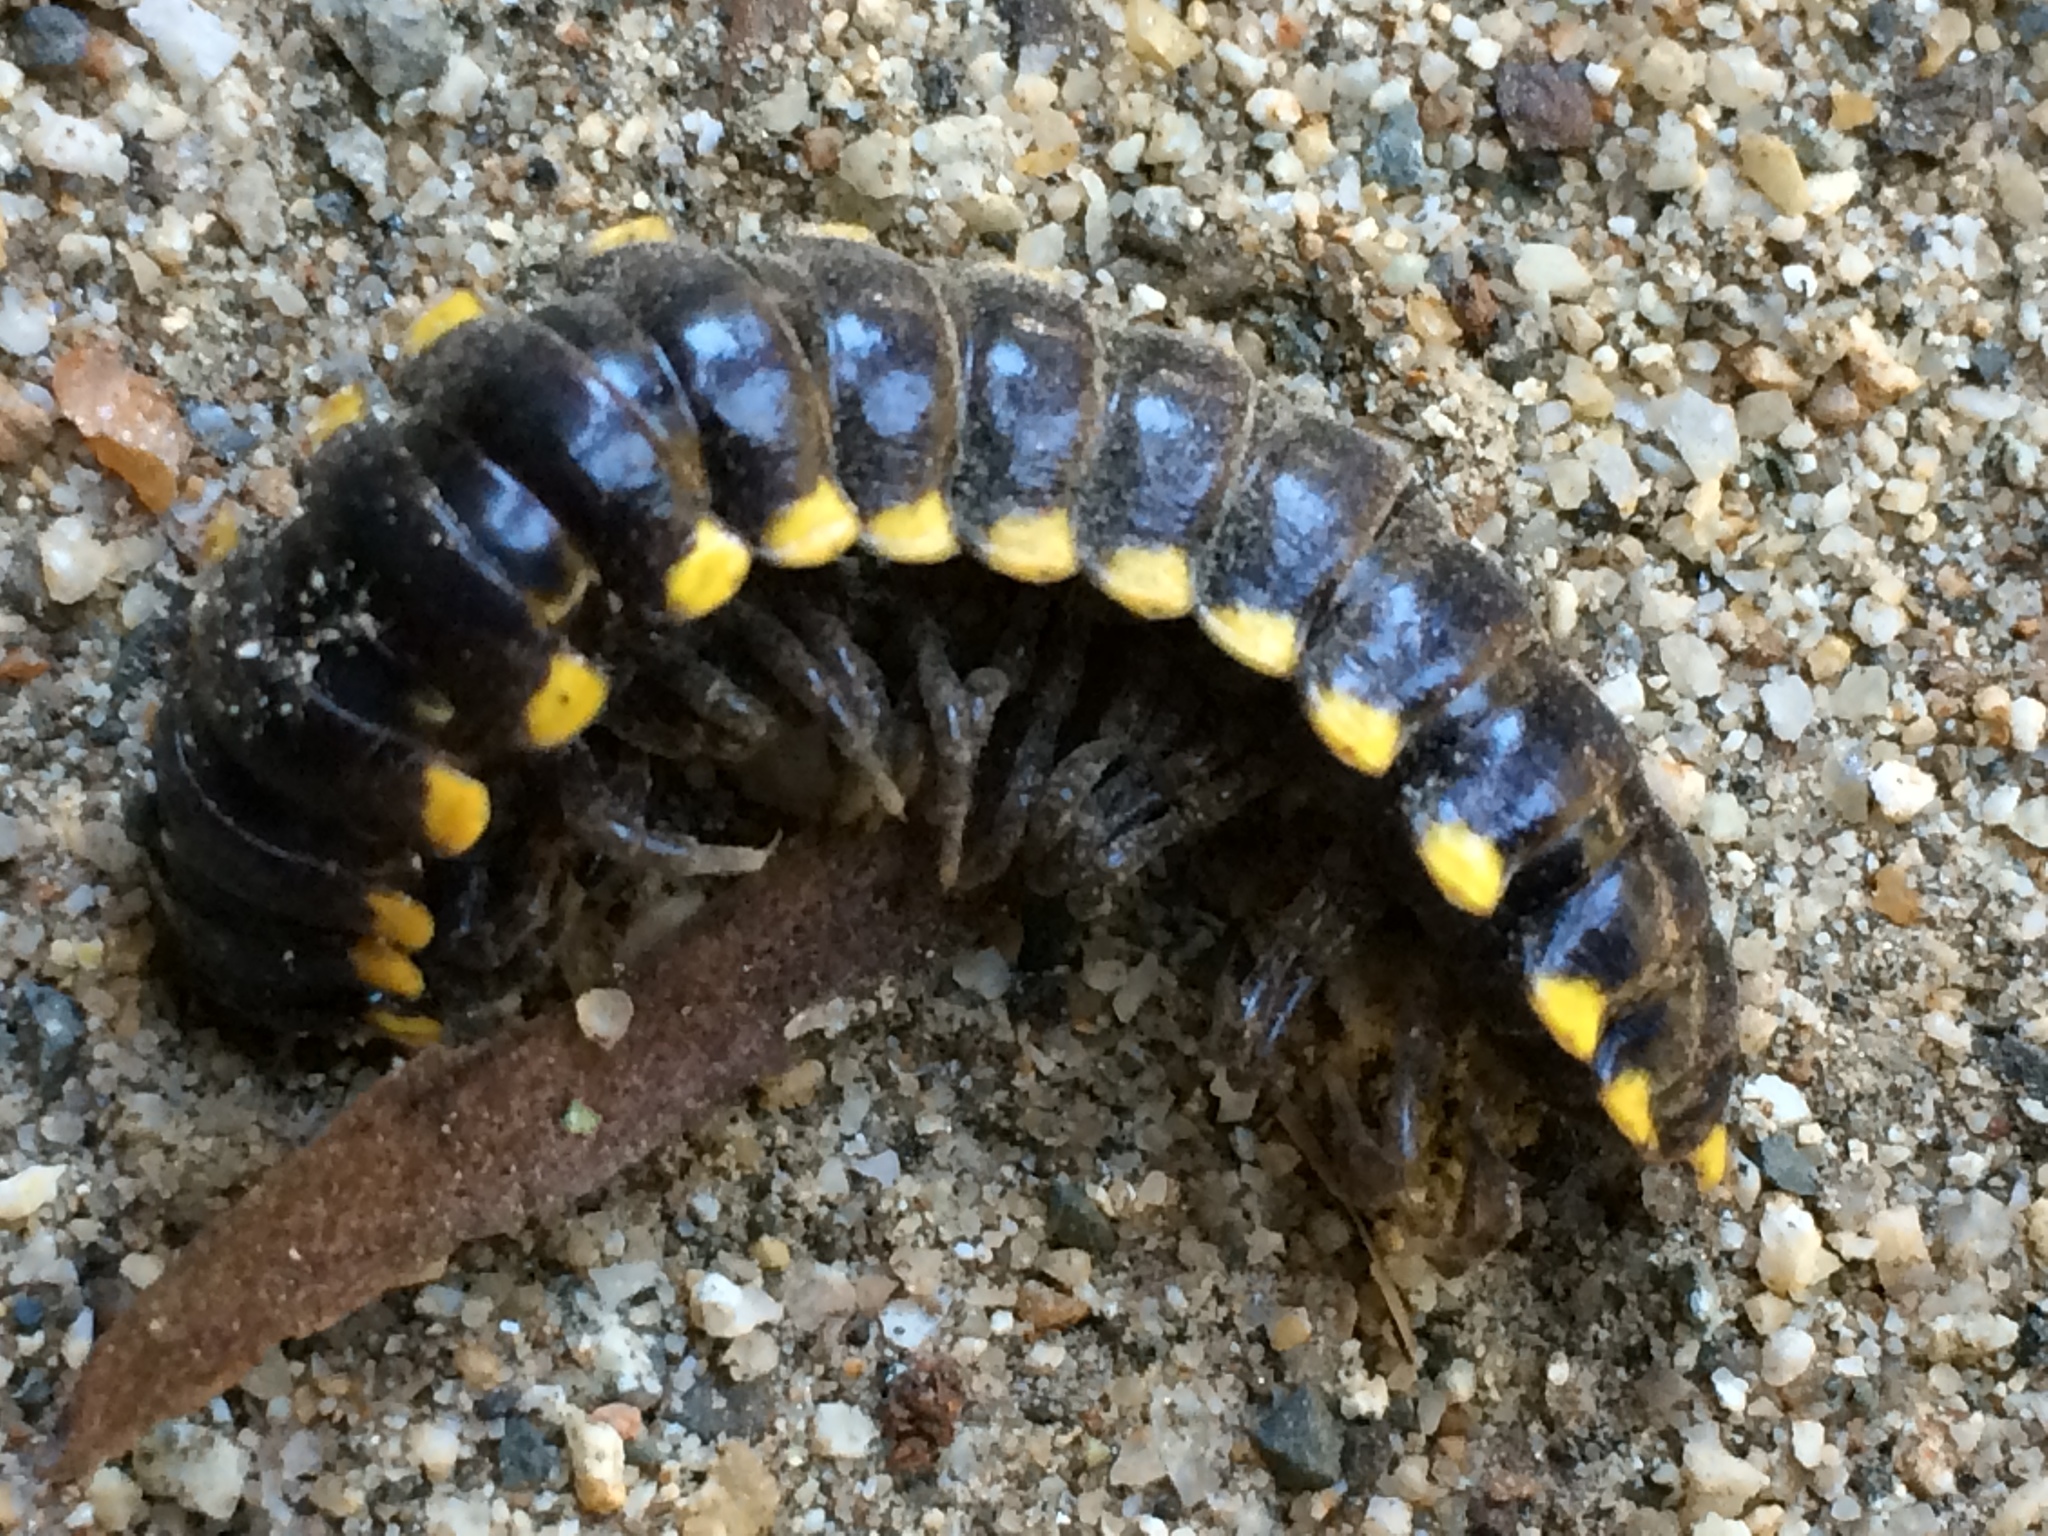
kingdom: Animalia
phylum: Arthropoda
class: Diplopoda
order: Polydesmida
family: Xystodesmidae
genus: Harpaphe
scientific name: Harpaphe haydeniana
